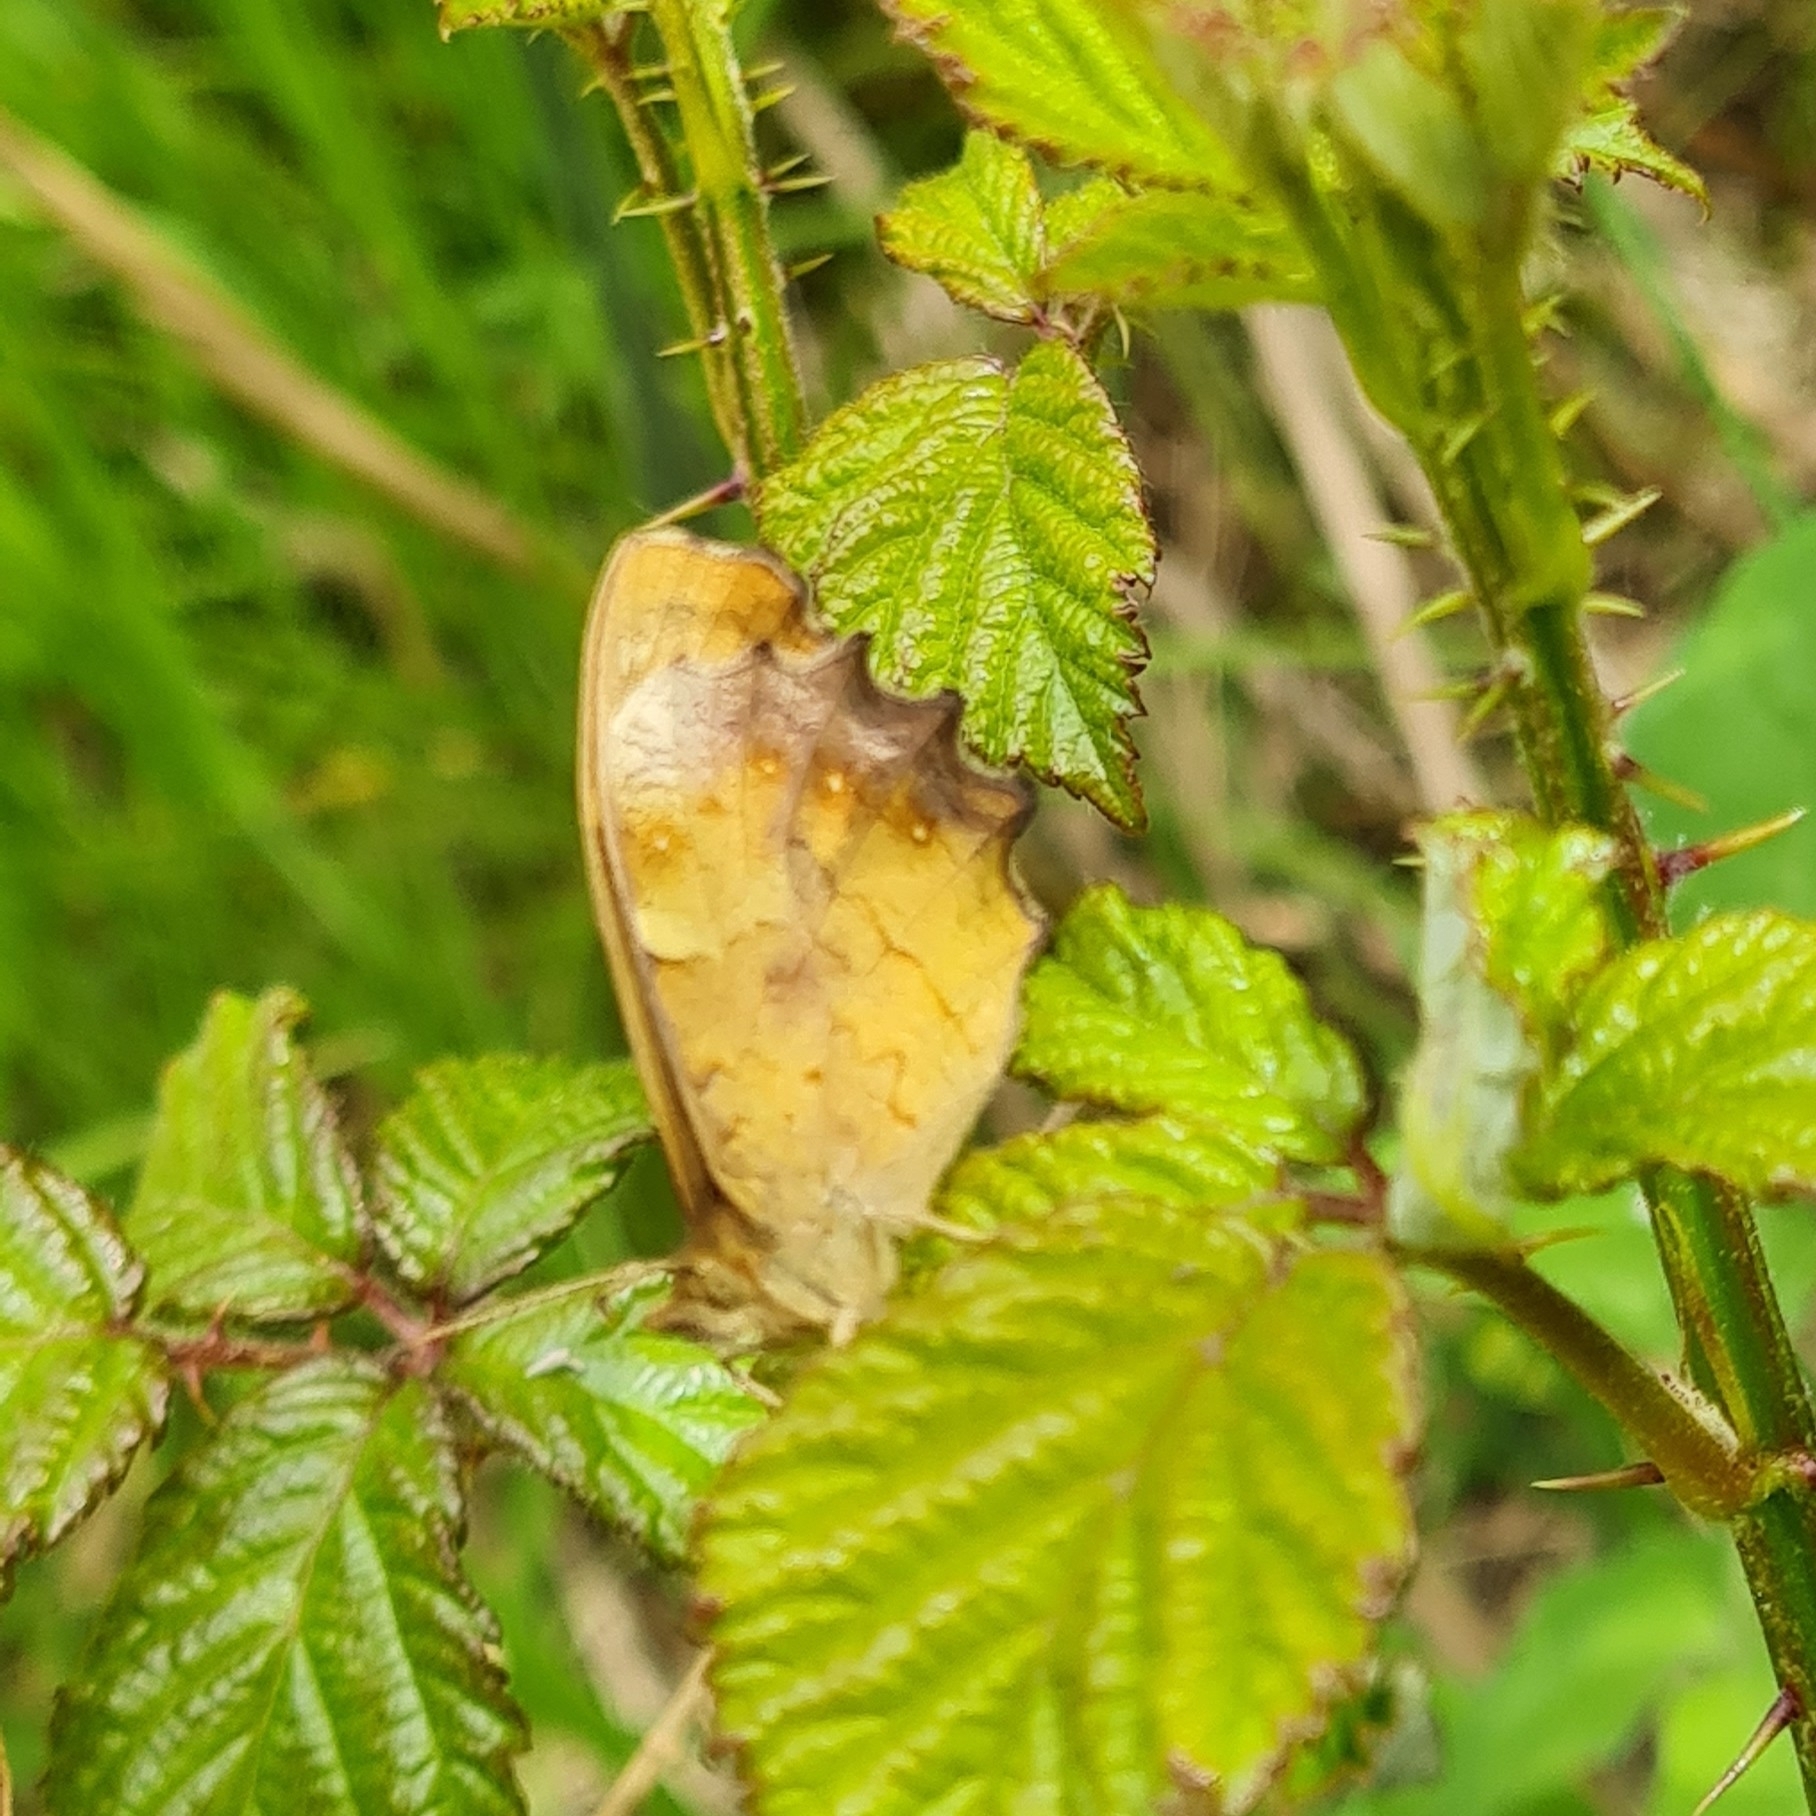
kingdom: Animalia
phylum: Arthropoda
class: Insecta
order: Lepidoptera
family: Nymphalidae
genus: Pararge
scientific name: Pararge aegeria
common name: Speckled wood
